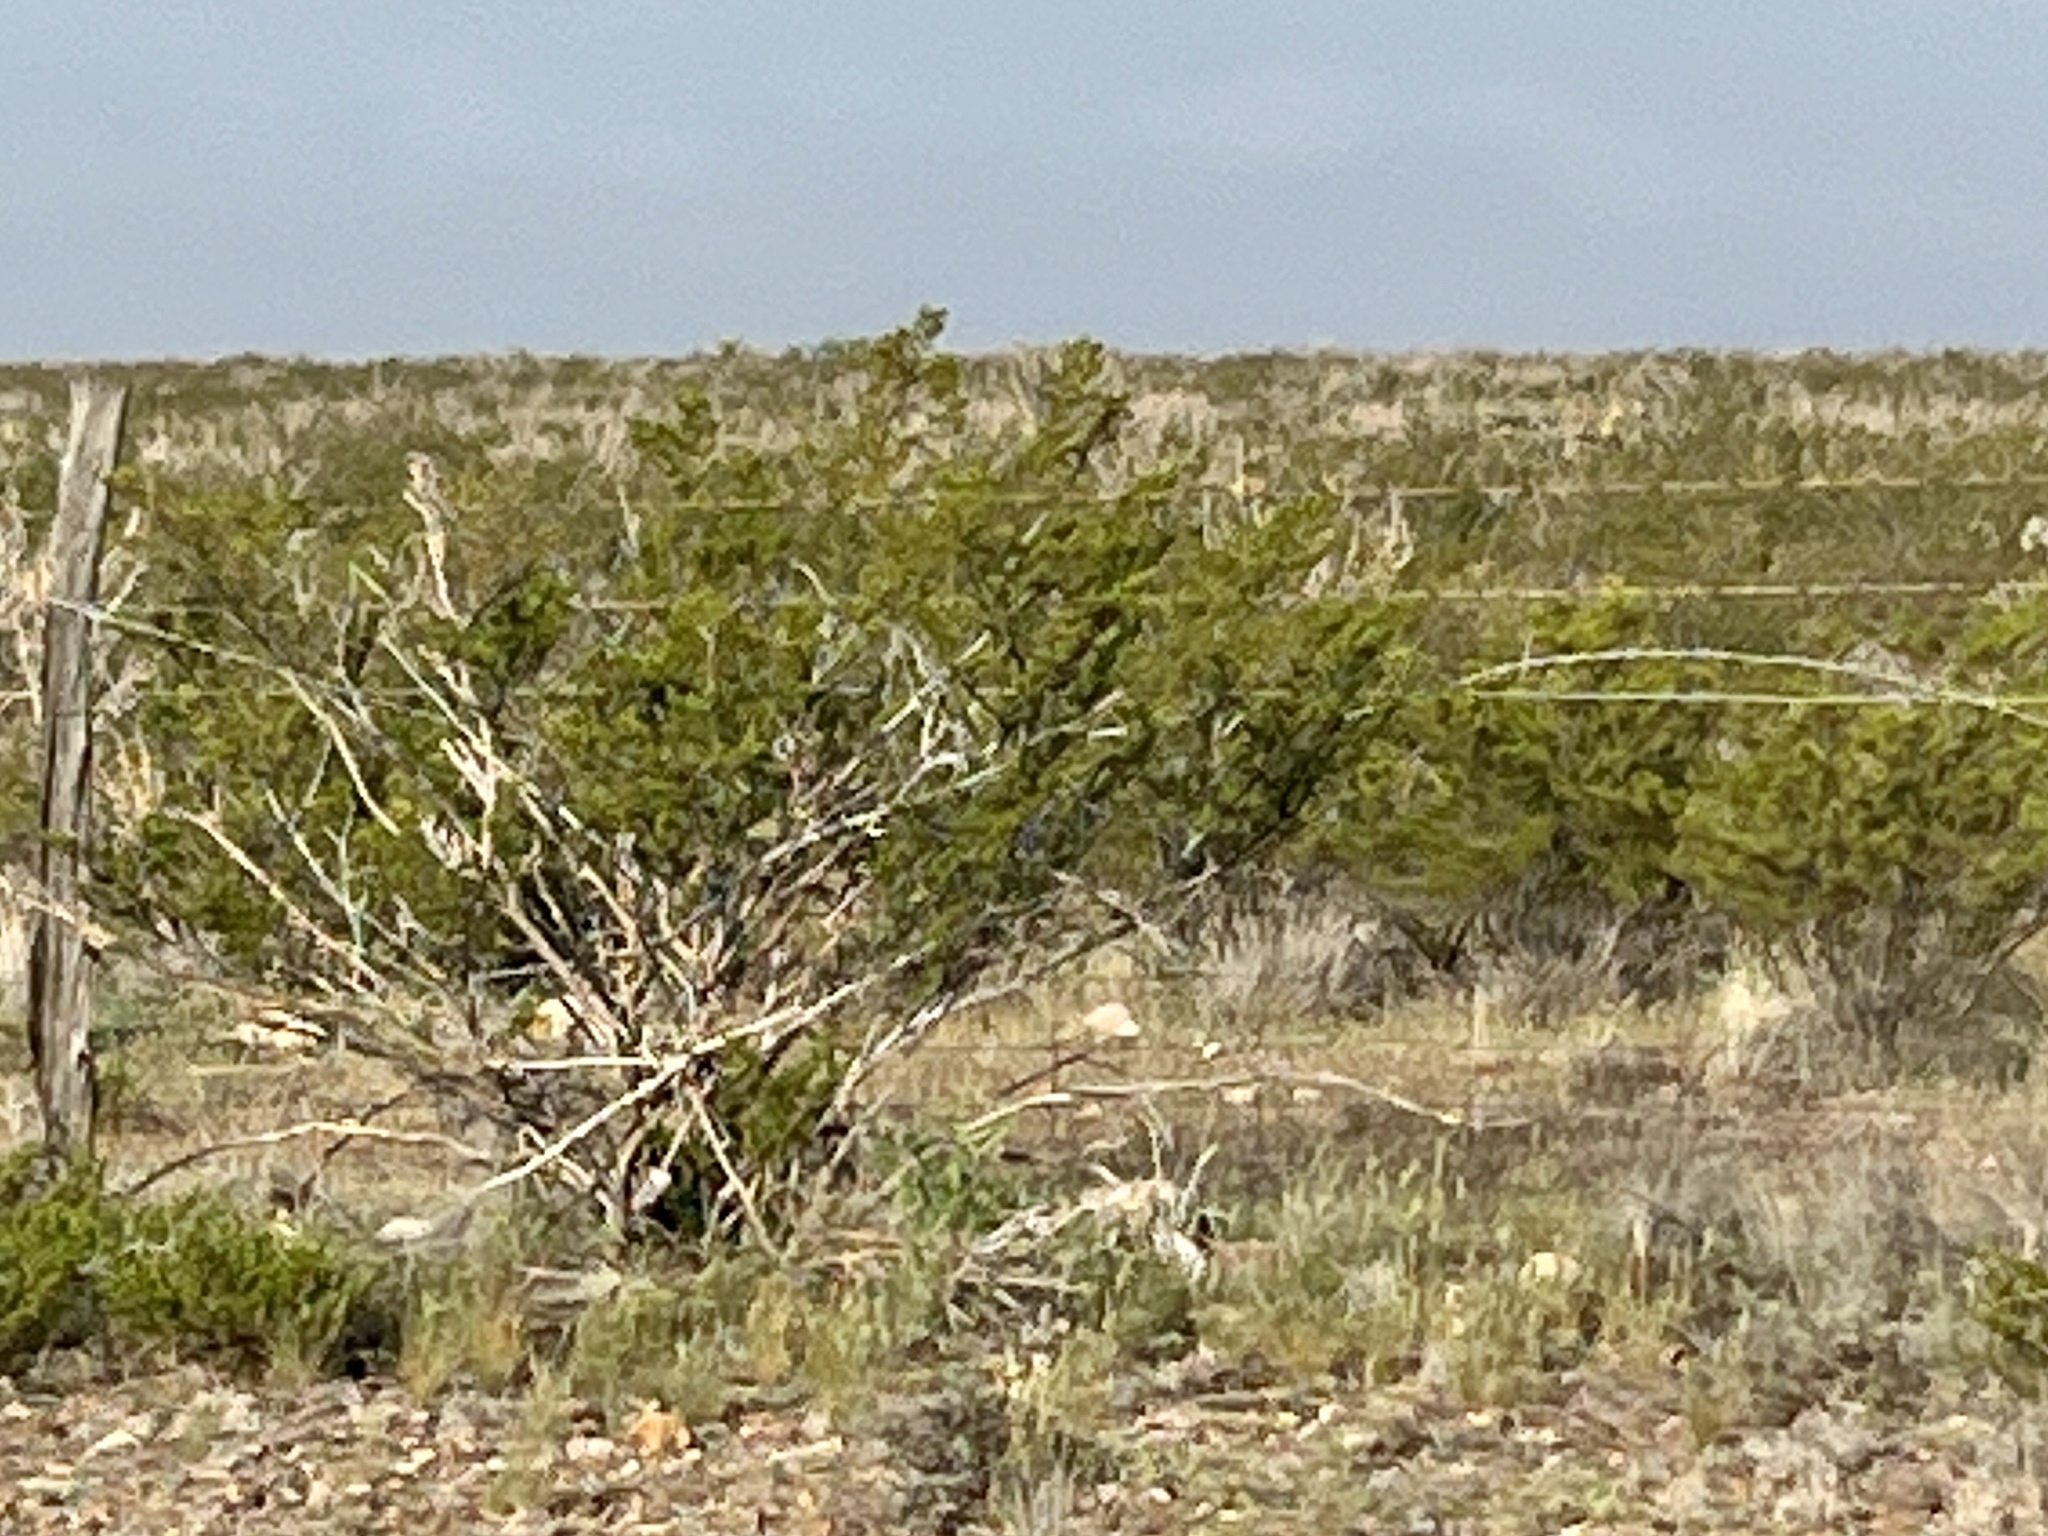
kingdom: Plantae
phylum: Tracheophyta
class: Magnoliopsida
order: Zygophyllales
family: Zygophyllaceae
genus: Larrea
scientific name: Larrea tridentata
